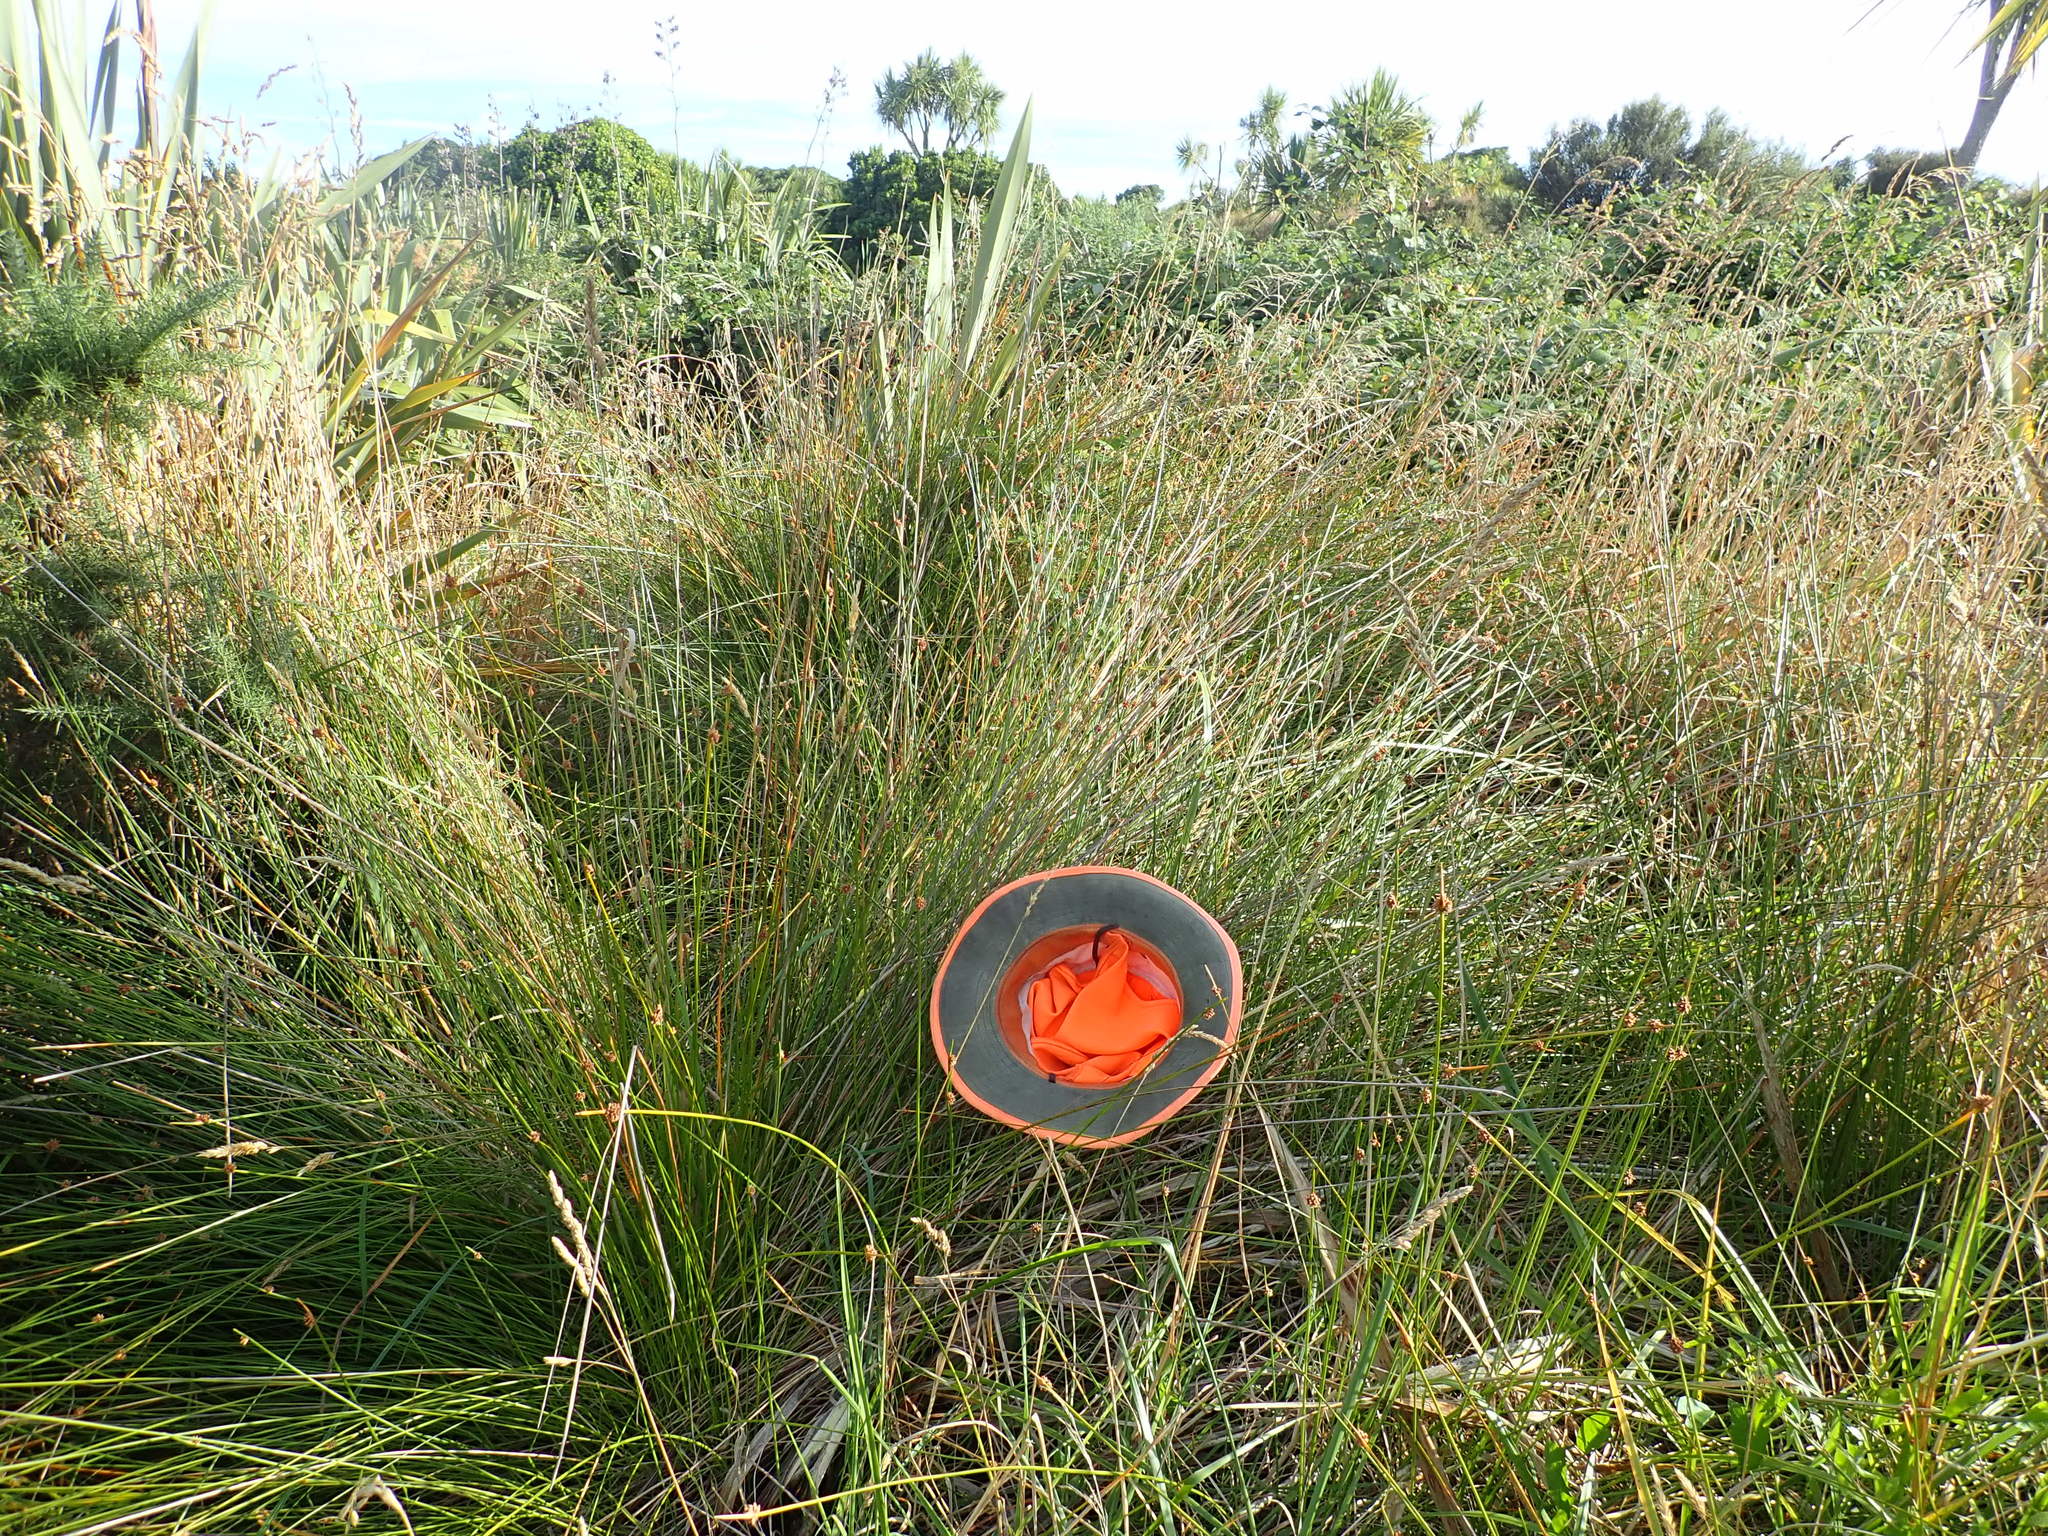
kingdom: Plantae
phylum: Tracheophyta
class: Liliopsida
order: Poales
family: Cyperaceae
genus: Ficinia
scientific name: Ficinia nodosa
